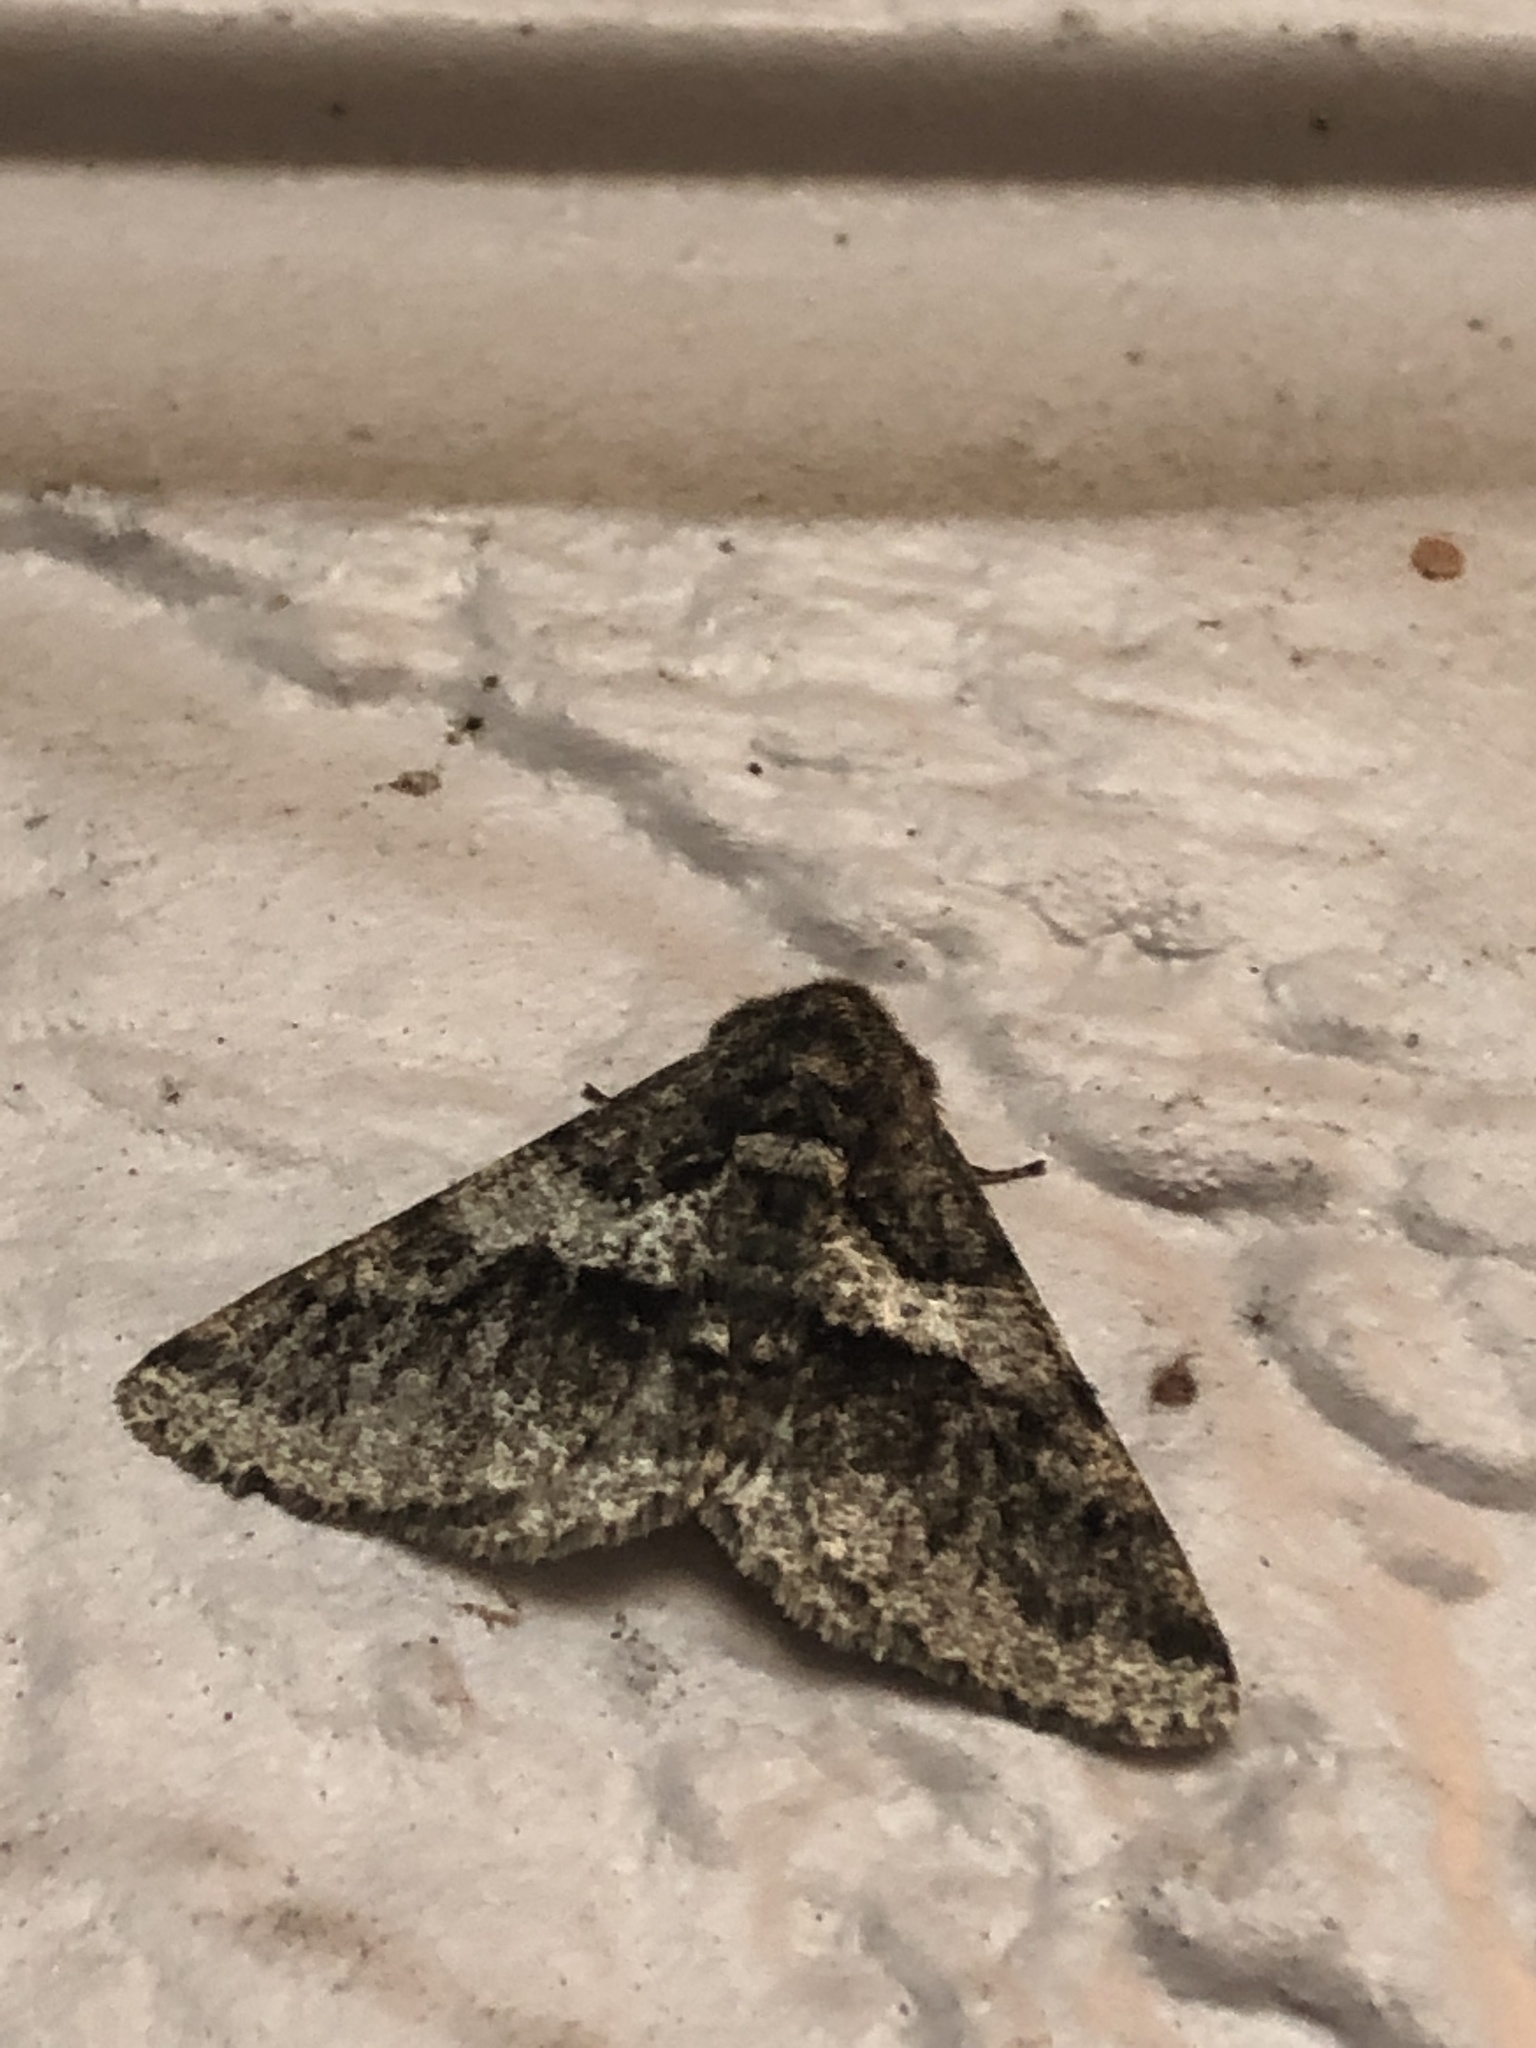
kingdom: Animalia
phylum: Arthropoda
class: Insecta
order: Lepidoptera
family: Geometridae
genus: Lycia
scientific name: Lycia ypsilon
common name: Wooly gray
